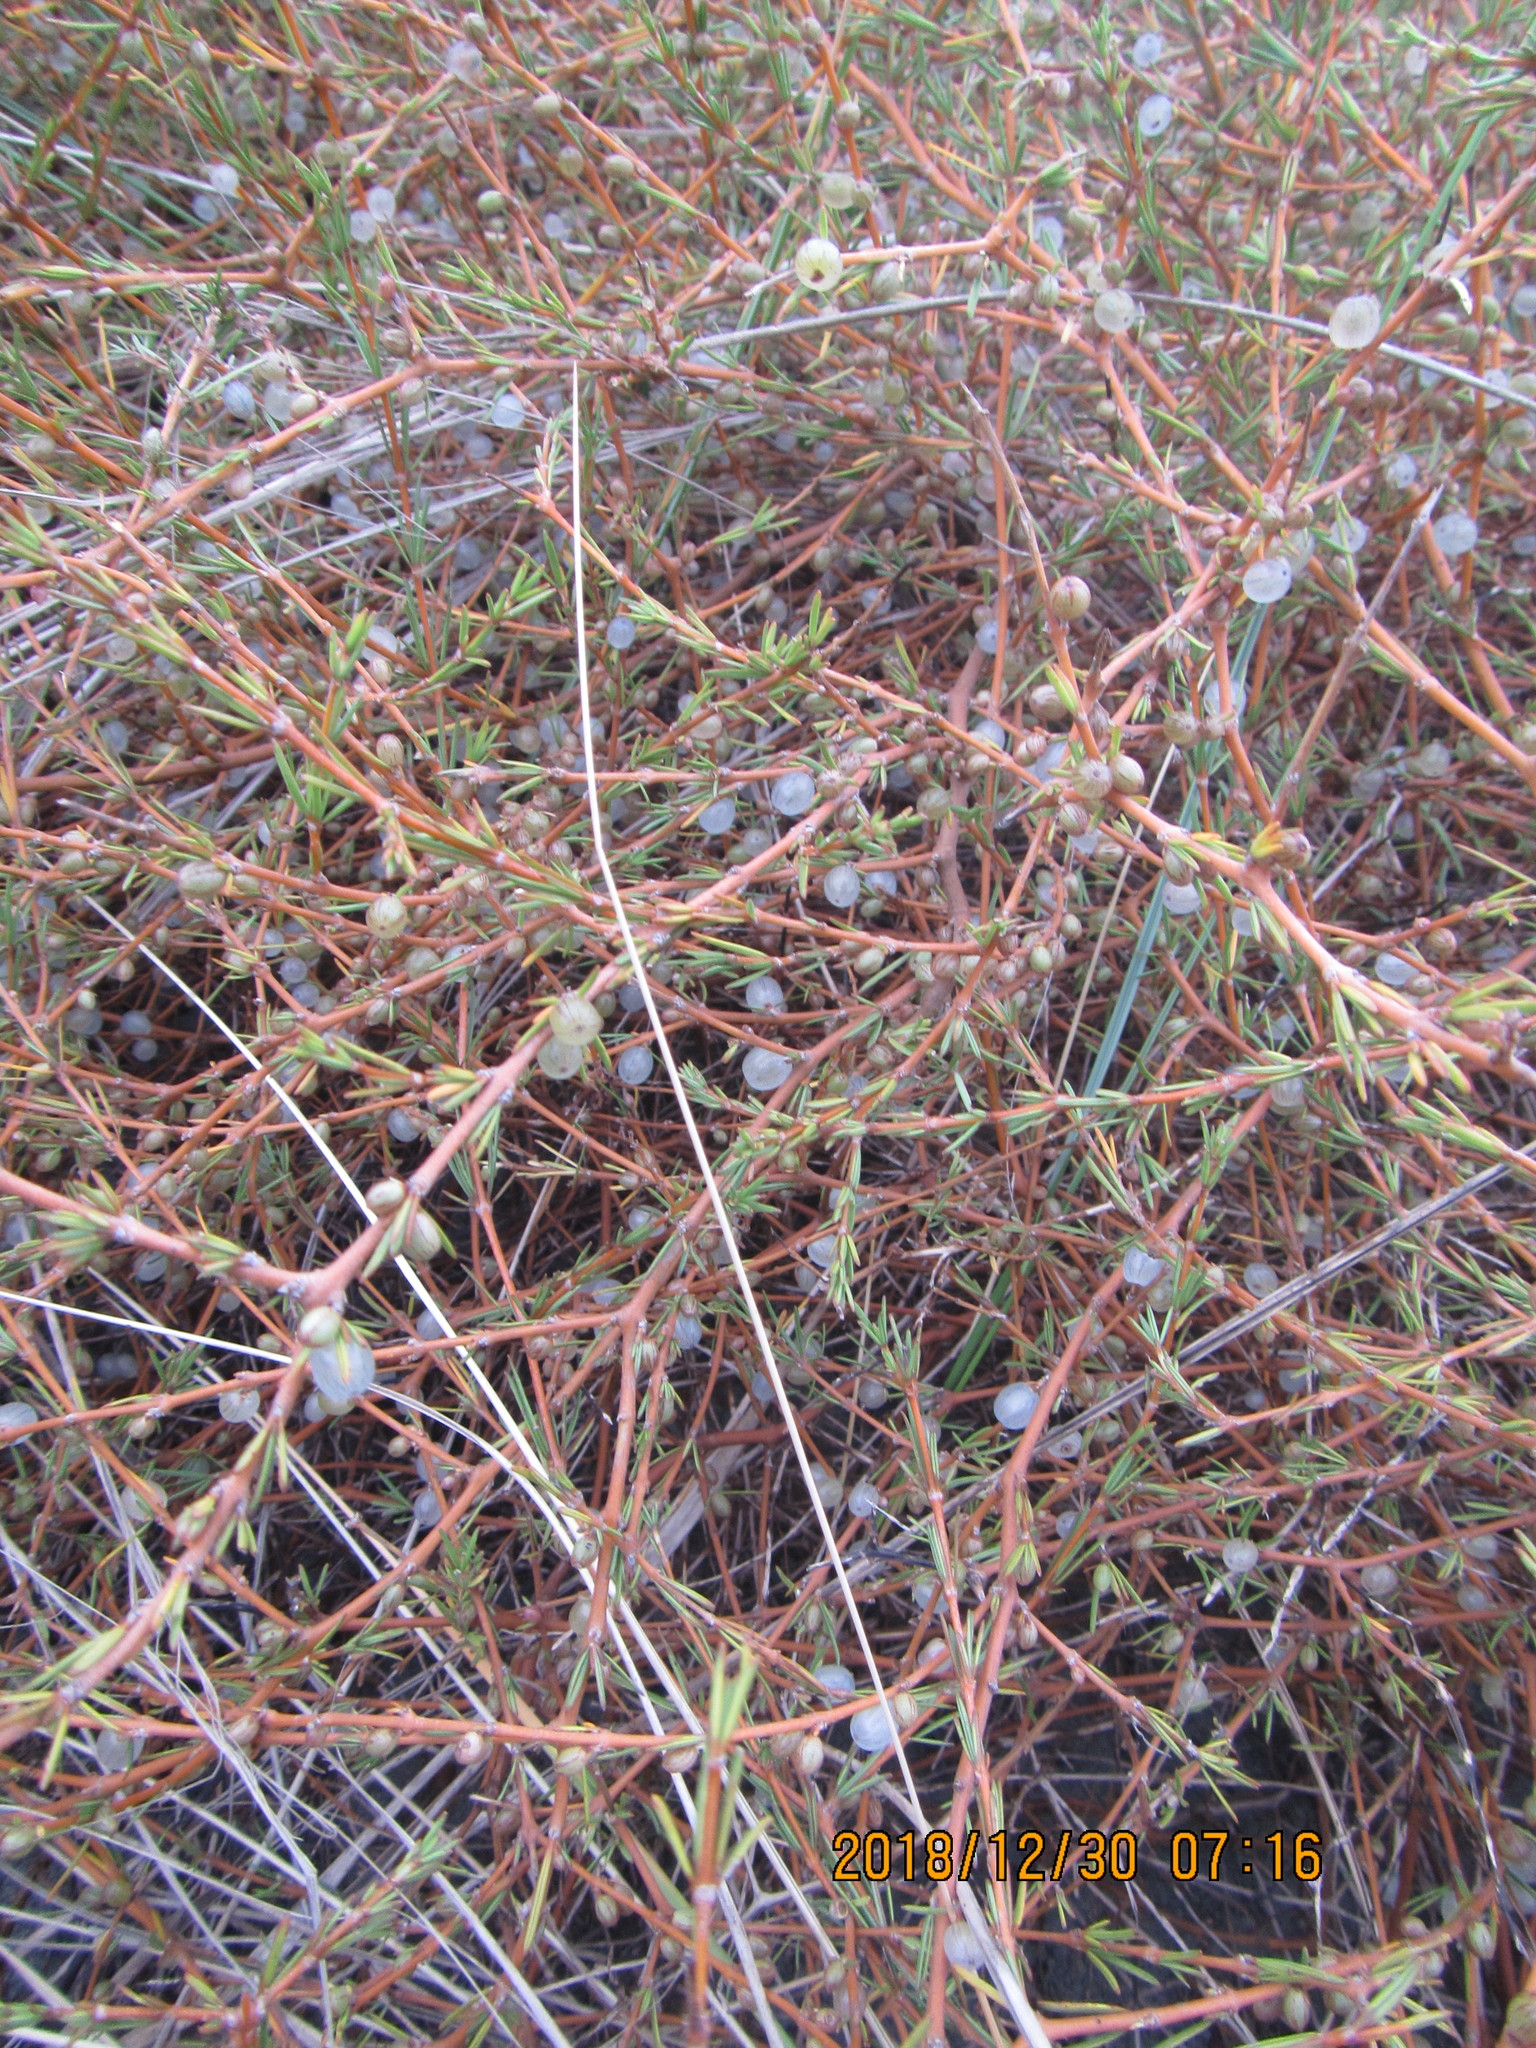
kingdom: Plantae
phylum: Tracheophyta
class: Magnoliopsida
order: Gentianales
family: Rubiaceae
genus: Coprosma
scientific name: Coprosma acerosa
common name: Sand coprosma
